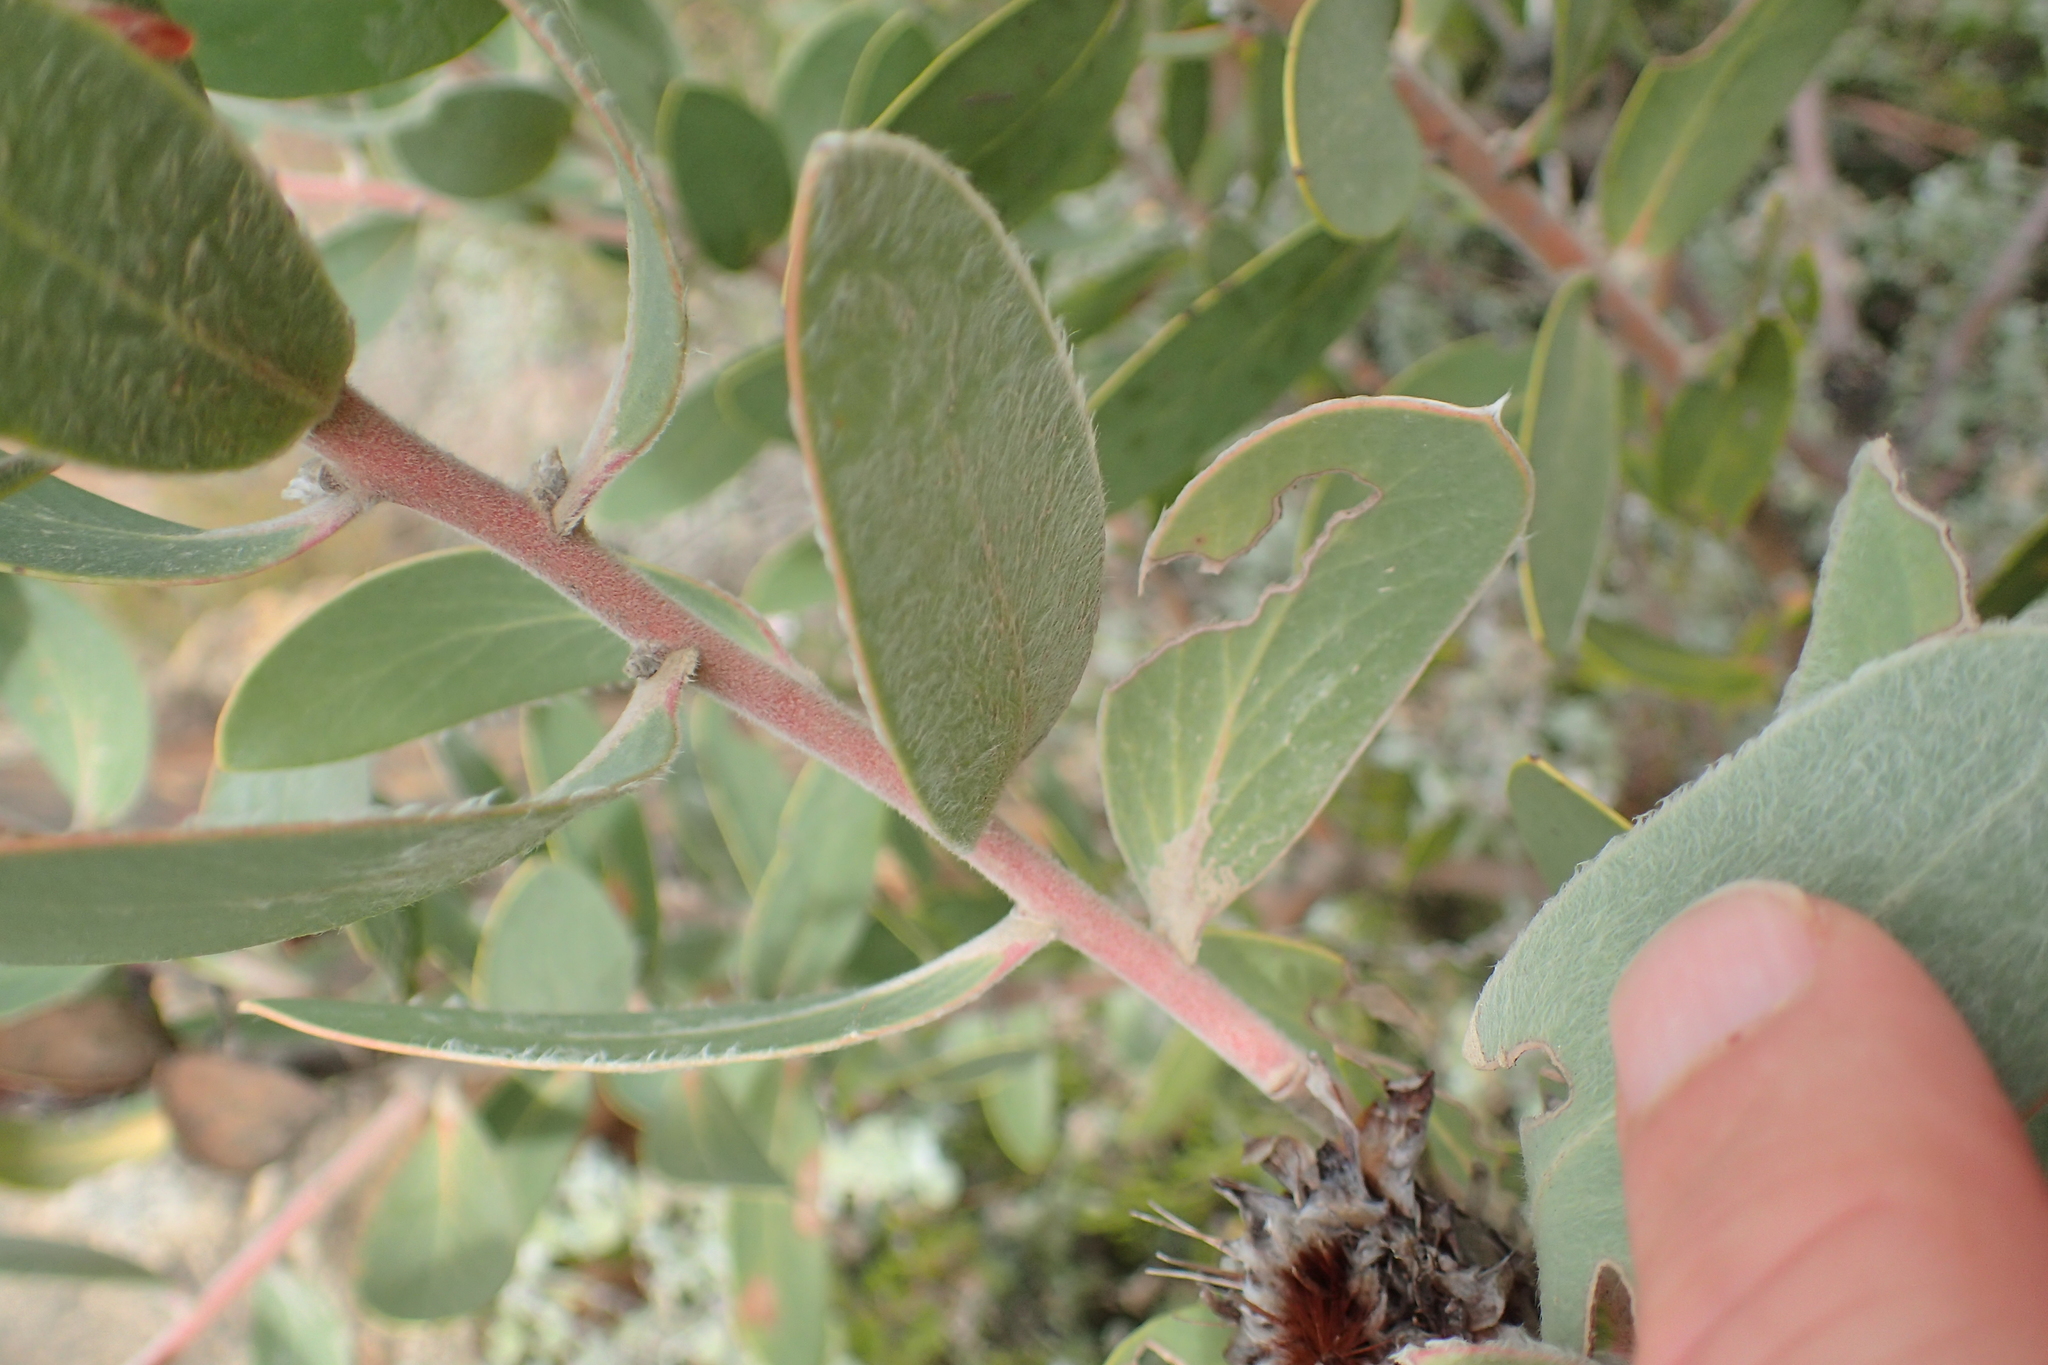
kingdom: Plantae
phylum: Tracheophyta
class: Magnoliopsida
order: Proteales
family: Proteaceae
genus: Protea
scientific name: Protea punctata
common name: Water sugarbush
